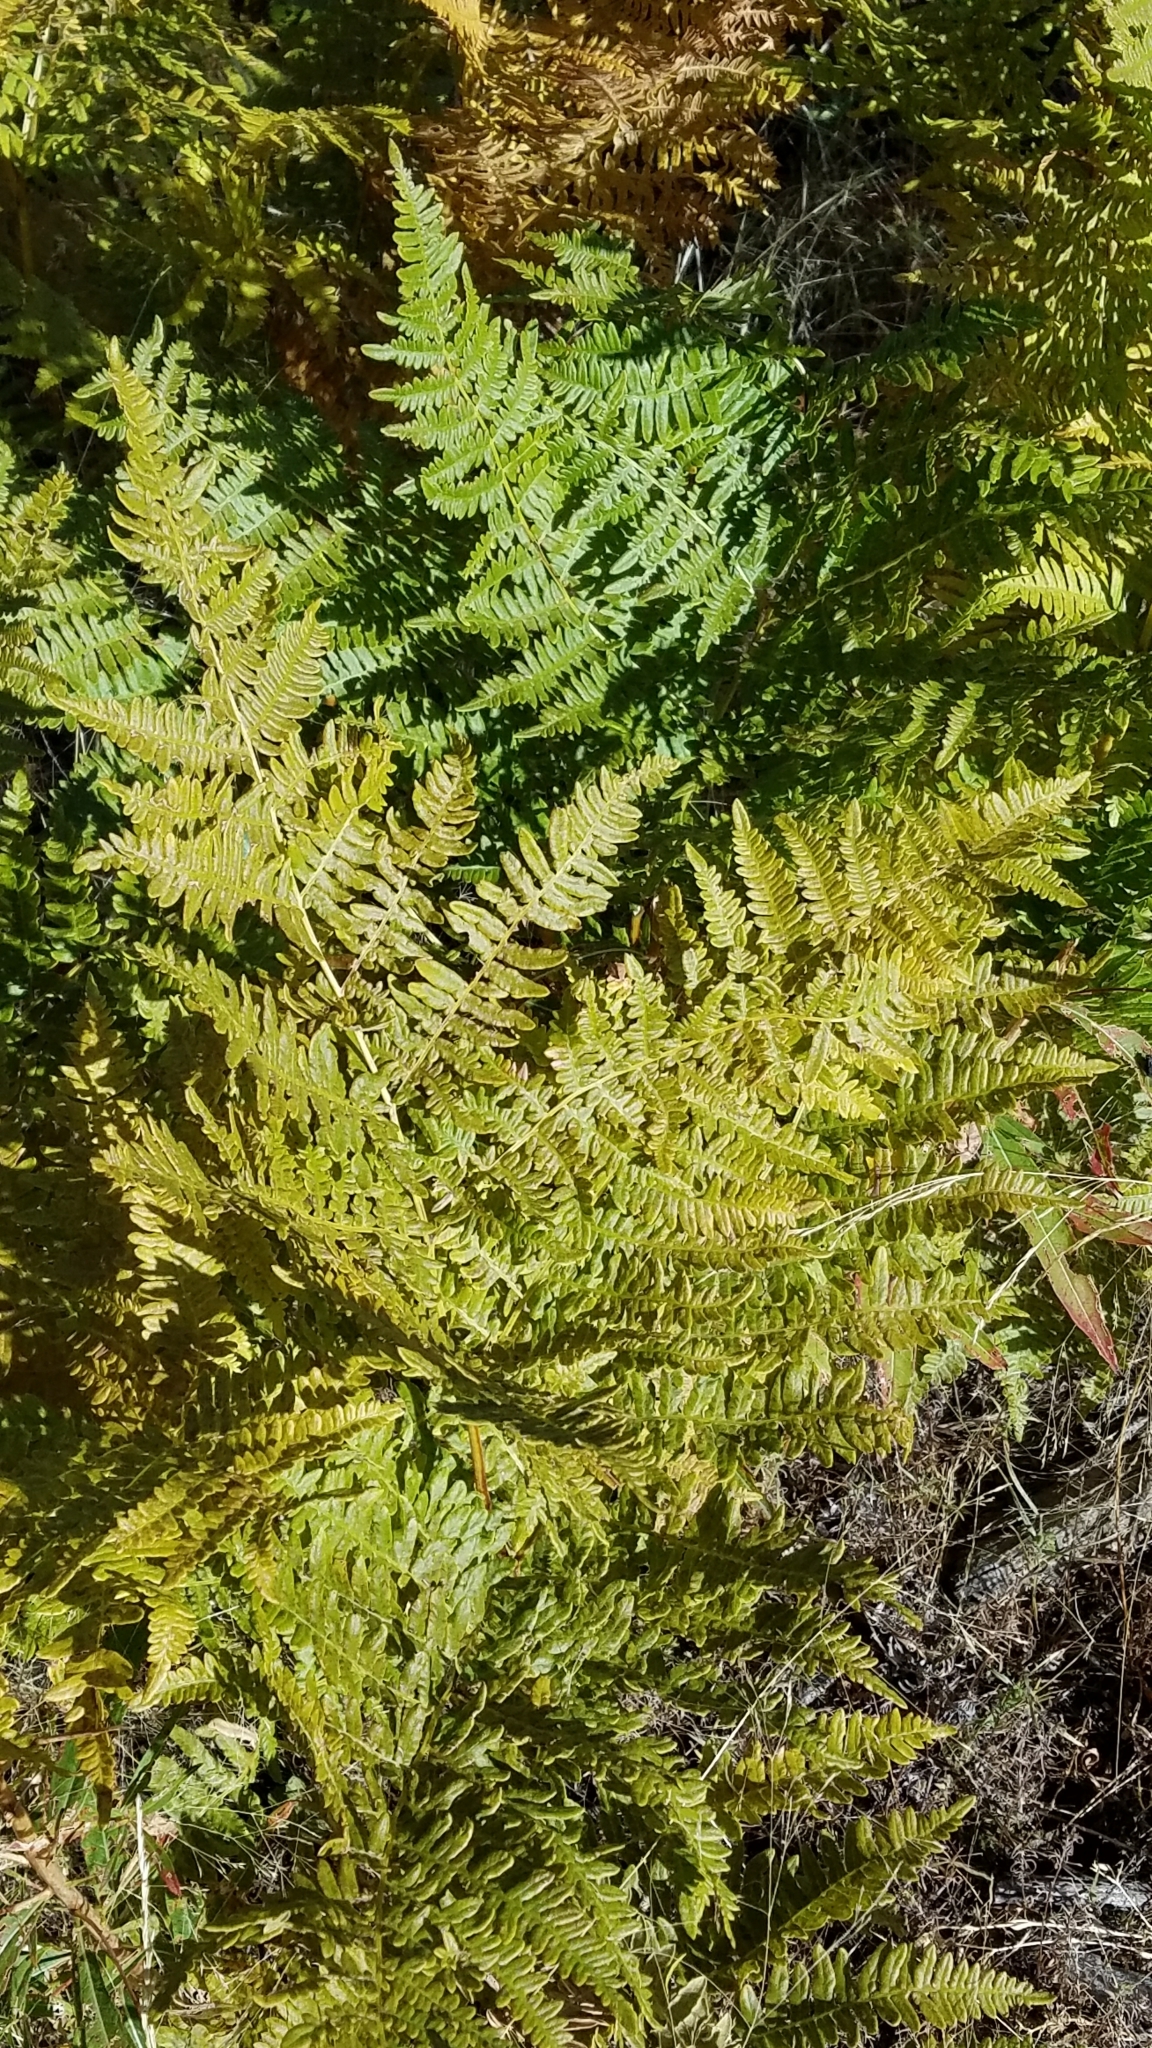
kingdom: Plantae
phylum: Tracheophyta
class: Polypodiopsida
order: Polypodiales
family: Dennstaedtiaceae
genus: Pteridium
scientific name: Pteridium aquilinum
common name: Bracken
